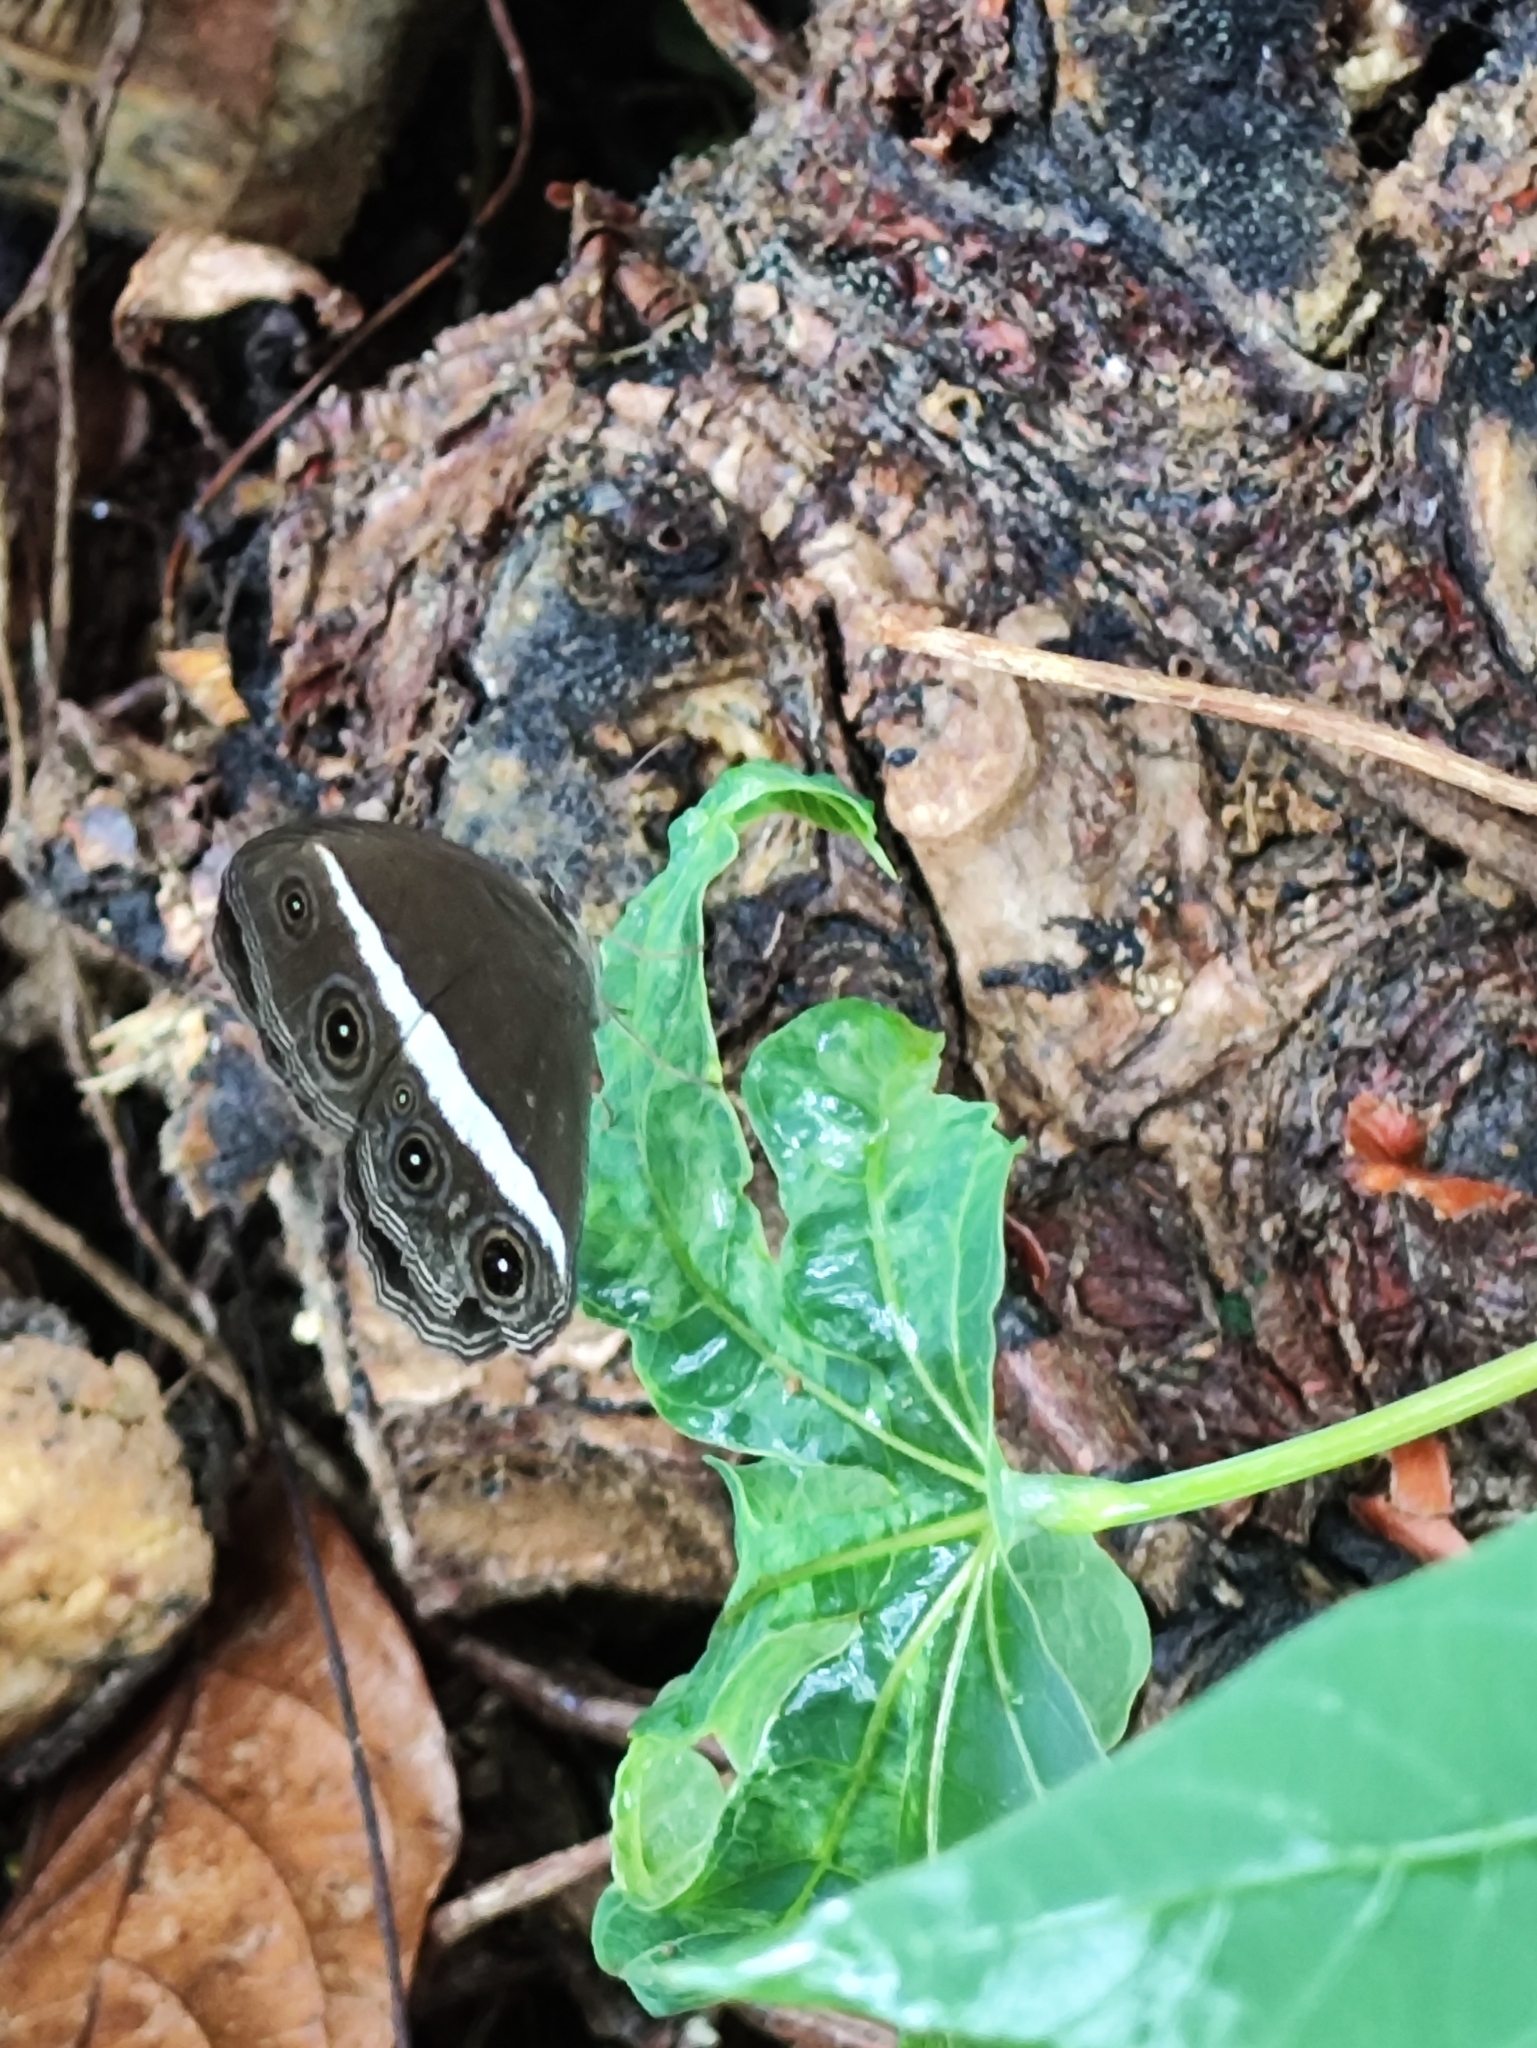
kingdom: Animalia
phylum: Arthropoda
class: Insecta
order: Lepidoptera
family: Nymphalidae
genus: Orsotriaena
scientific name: Orsotriaena medus
